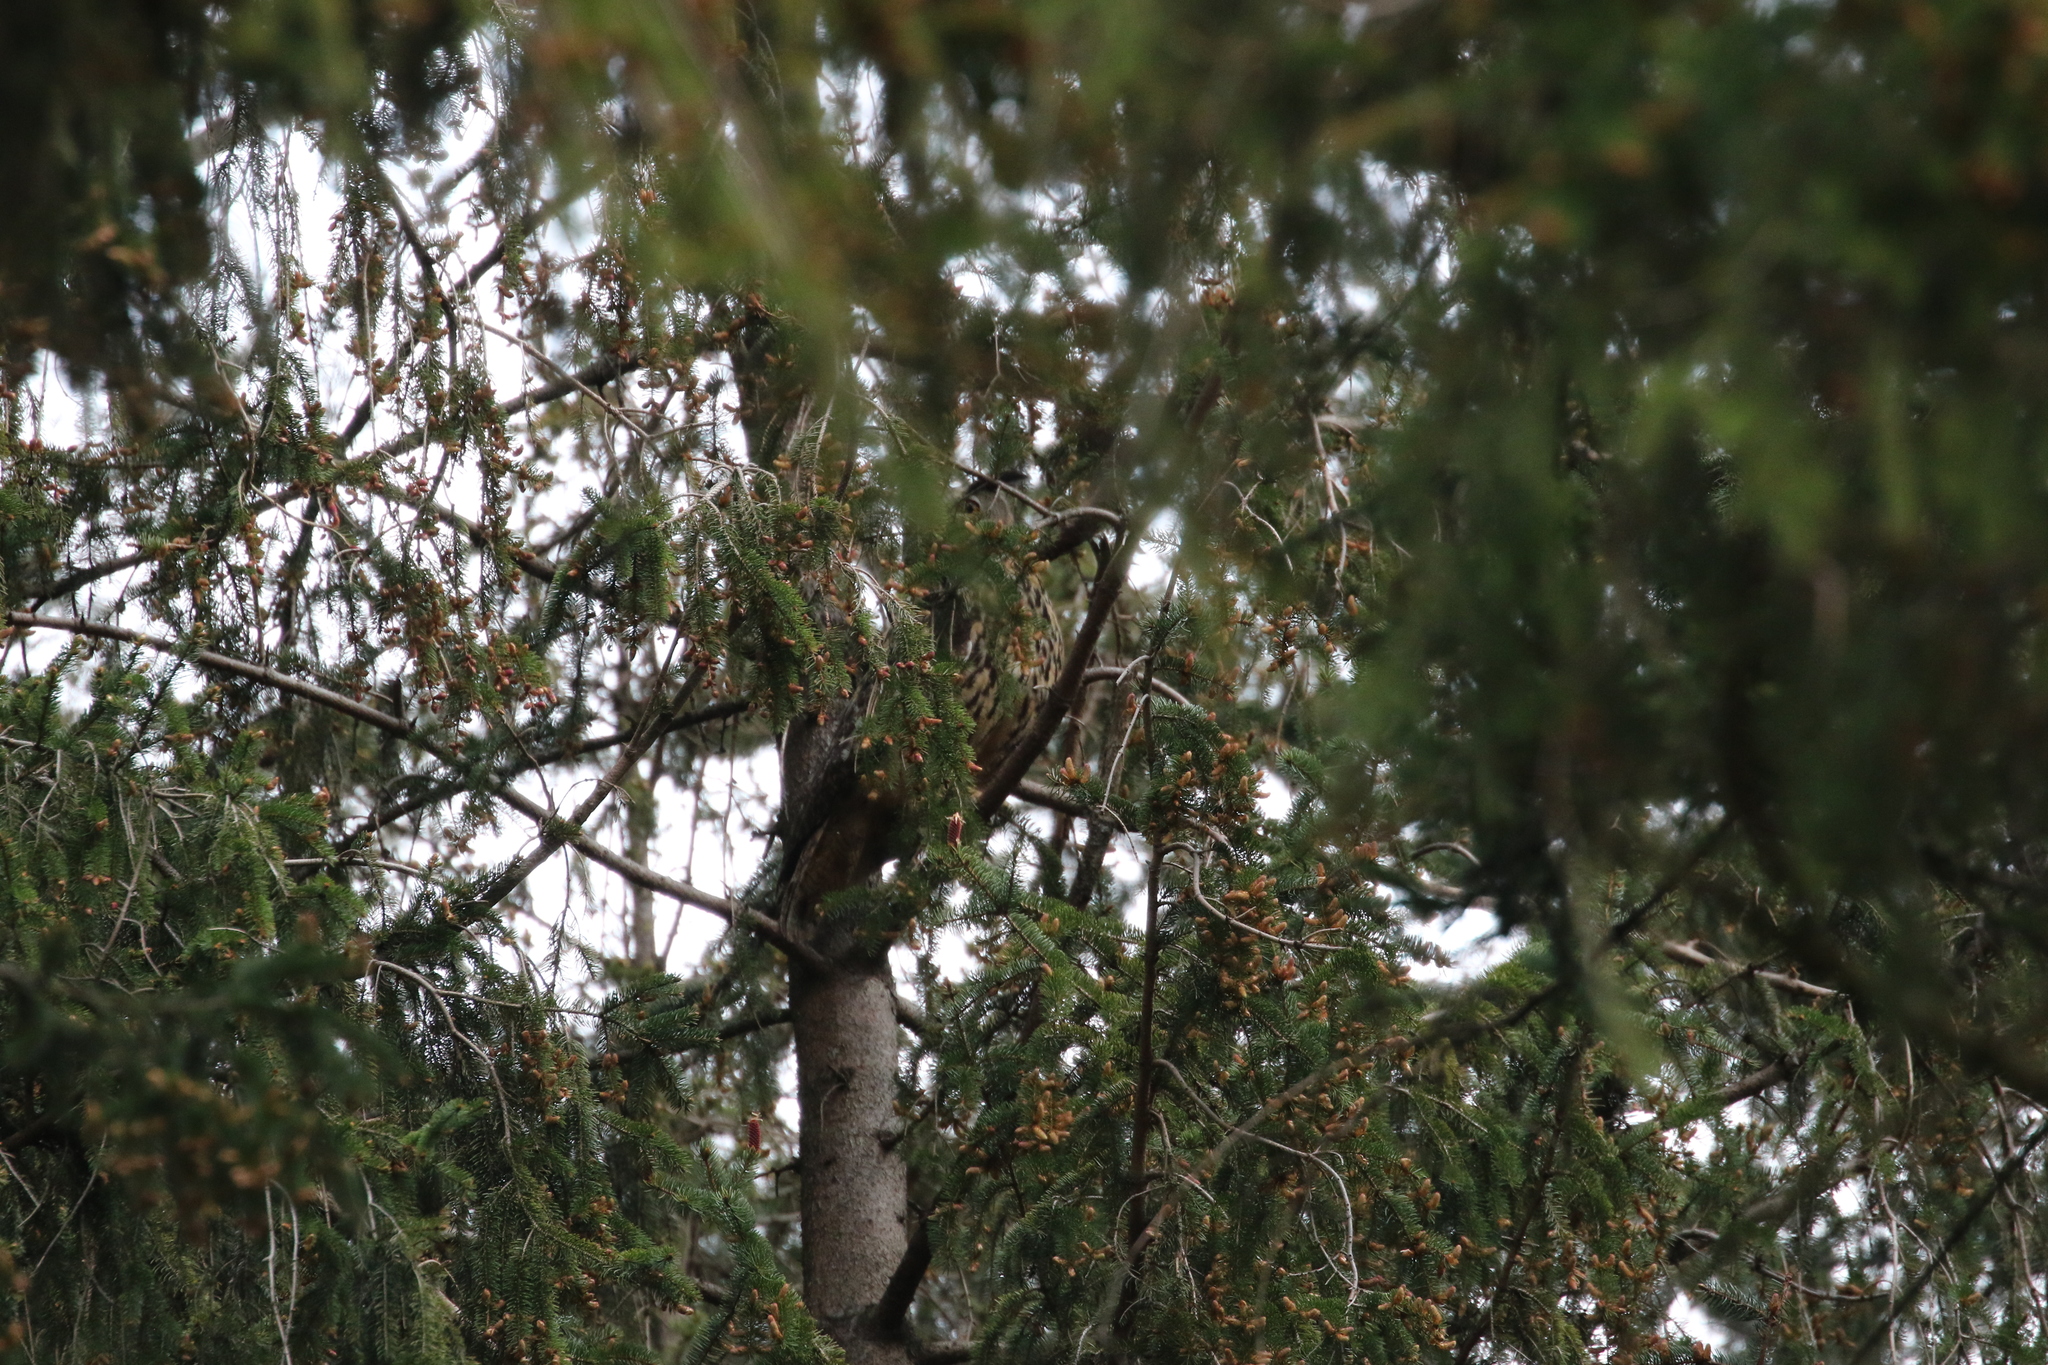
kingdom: Animalia
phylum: Chordata
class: Aves
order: Strigiformes
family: Strigidae
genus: Bubo
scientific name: Bubo bubo
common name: Eurasian eagle-owl
